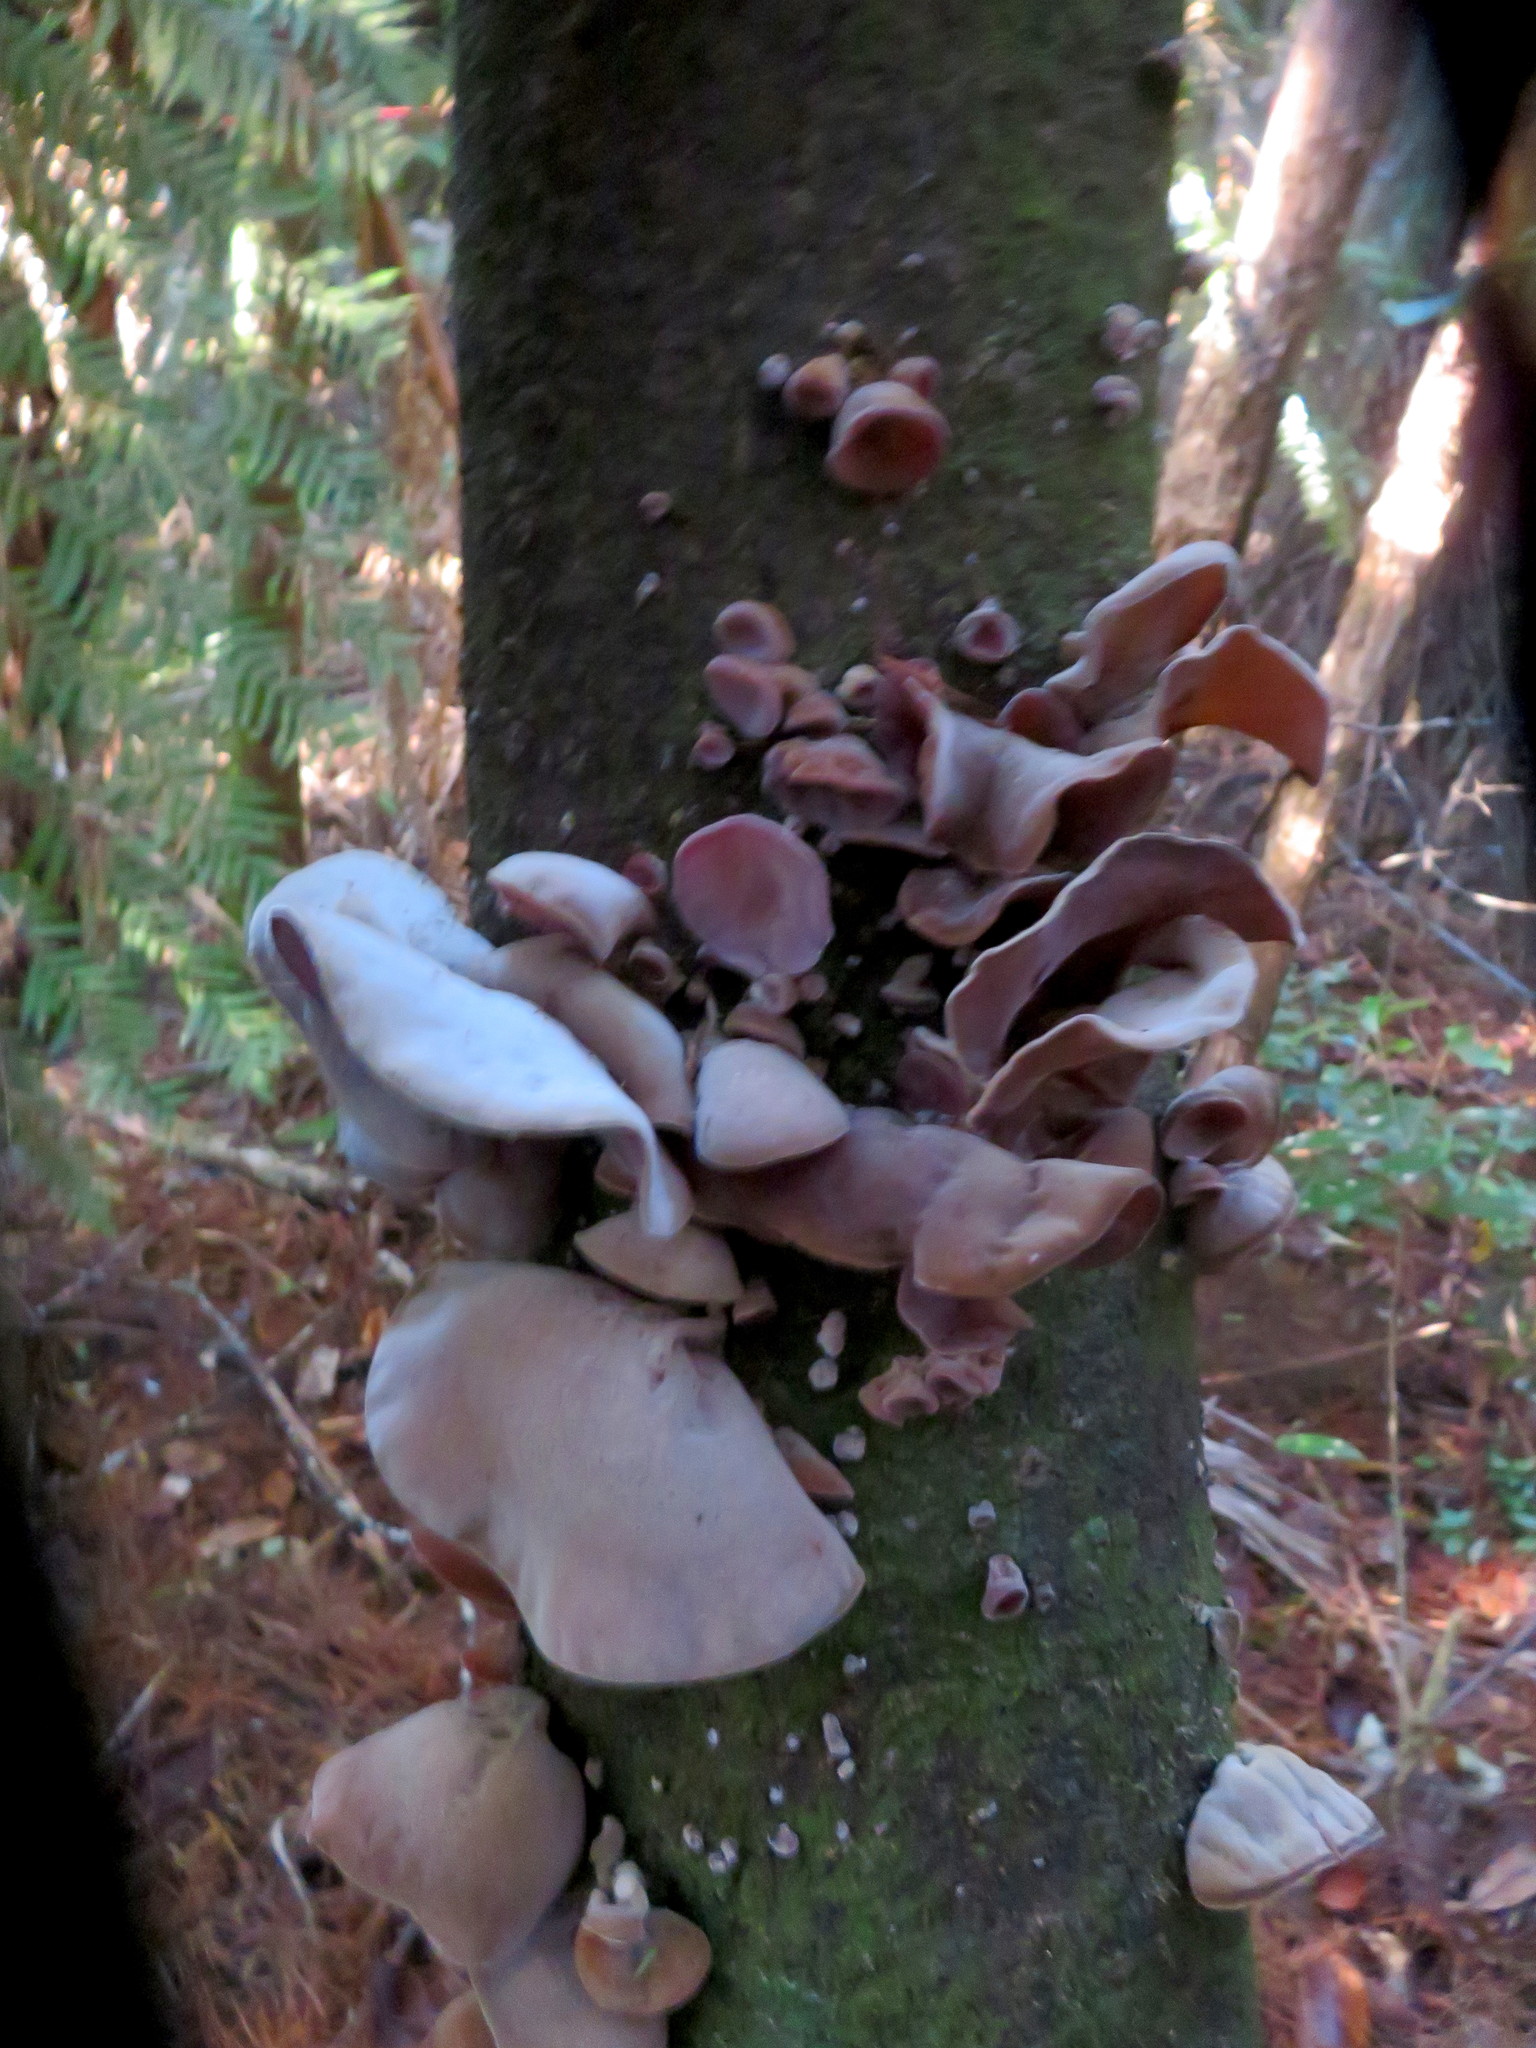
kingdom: Fungi
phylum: Basidiomycota
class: Agaricomycetes
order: Auriculariales
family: Auriculariaceae
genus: Auricularia
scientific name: Auricularia cornea
